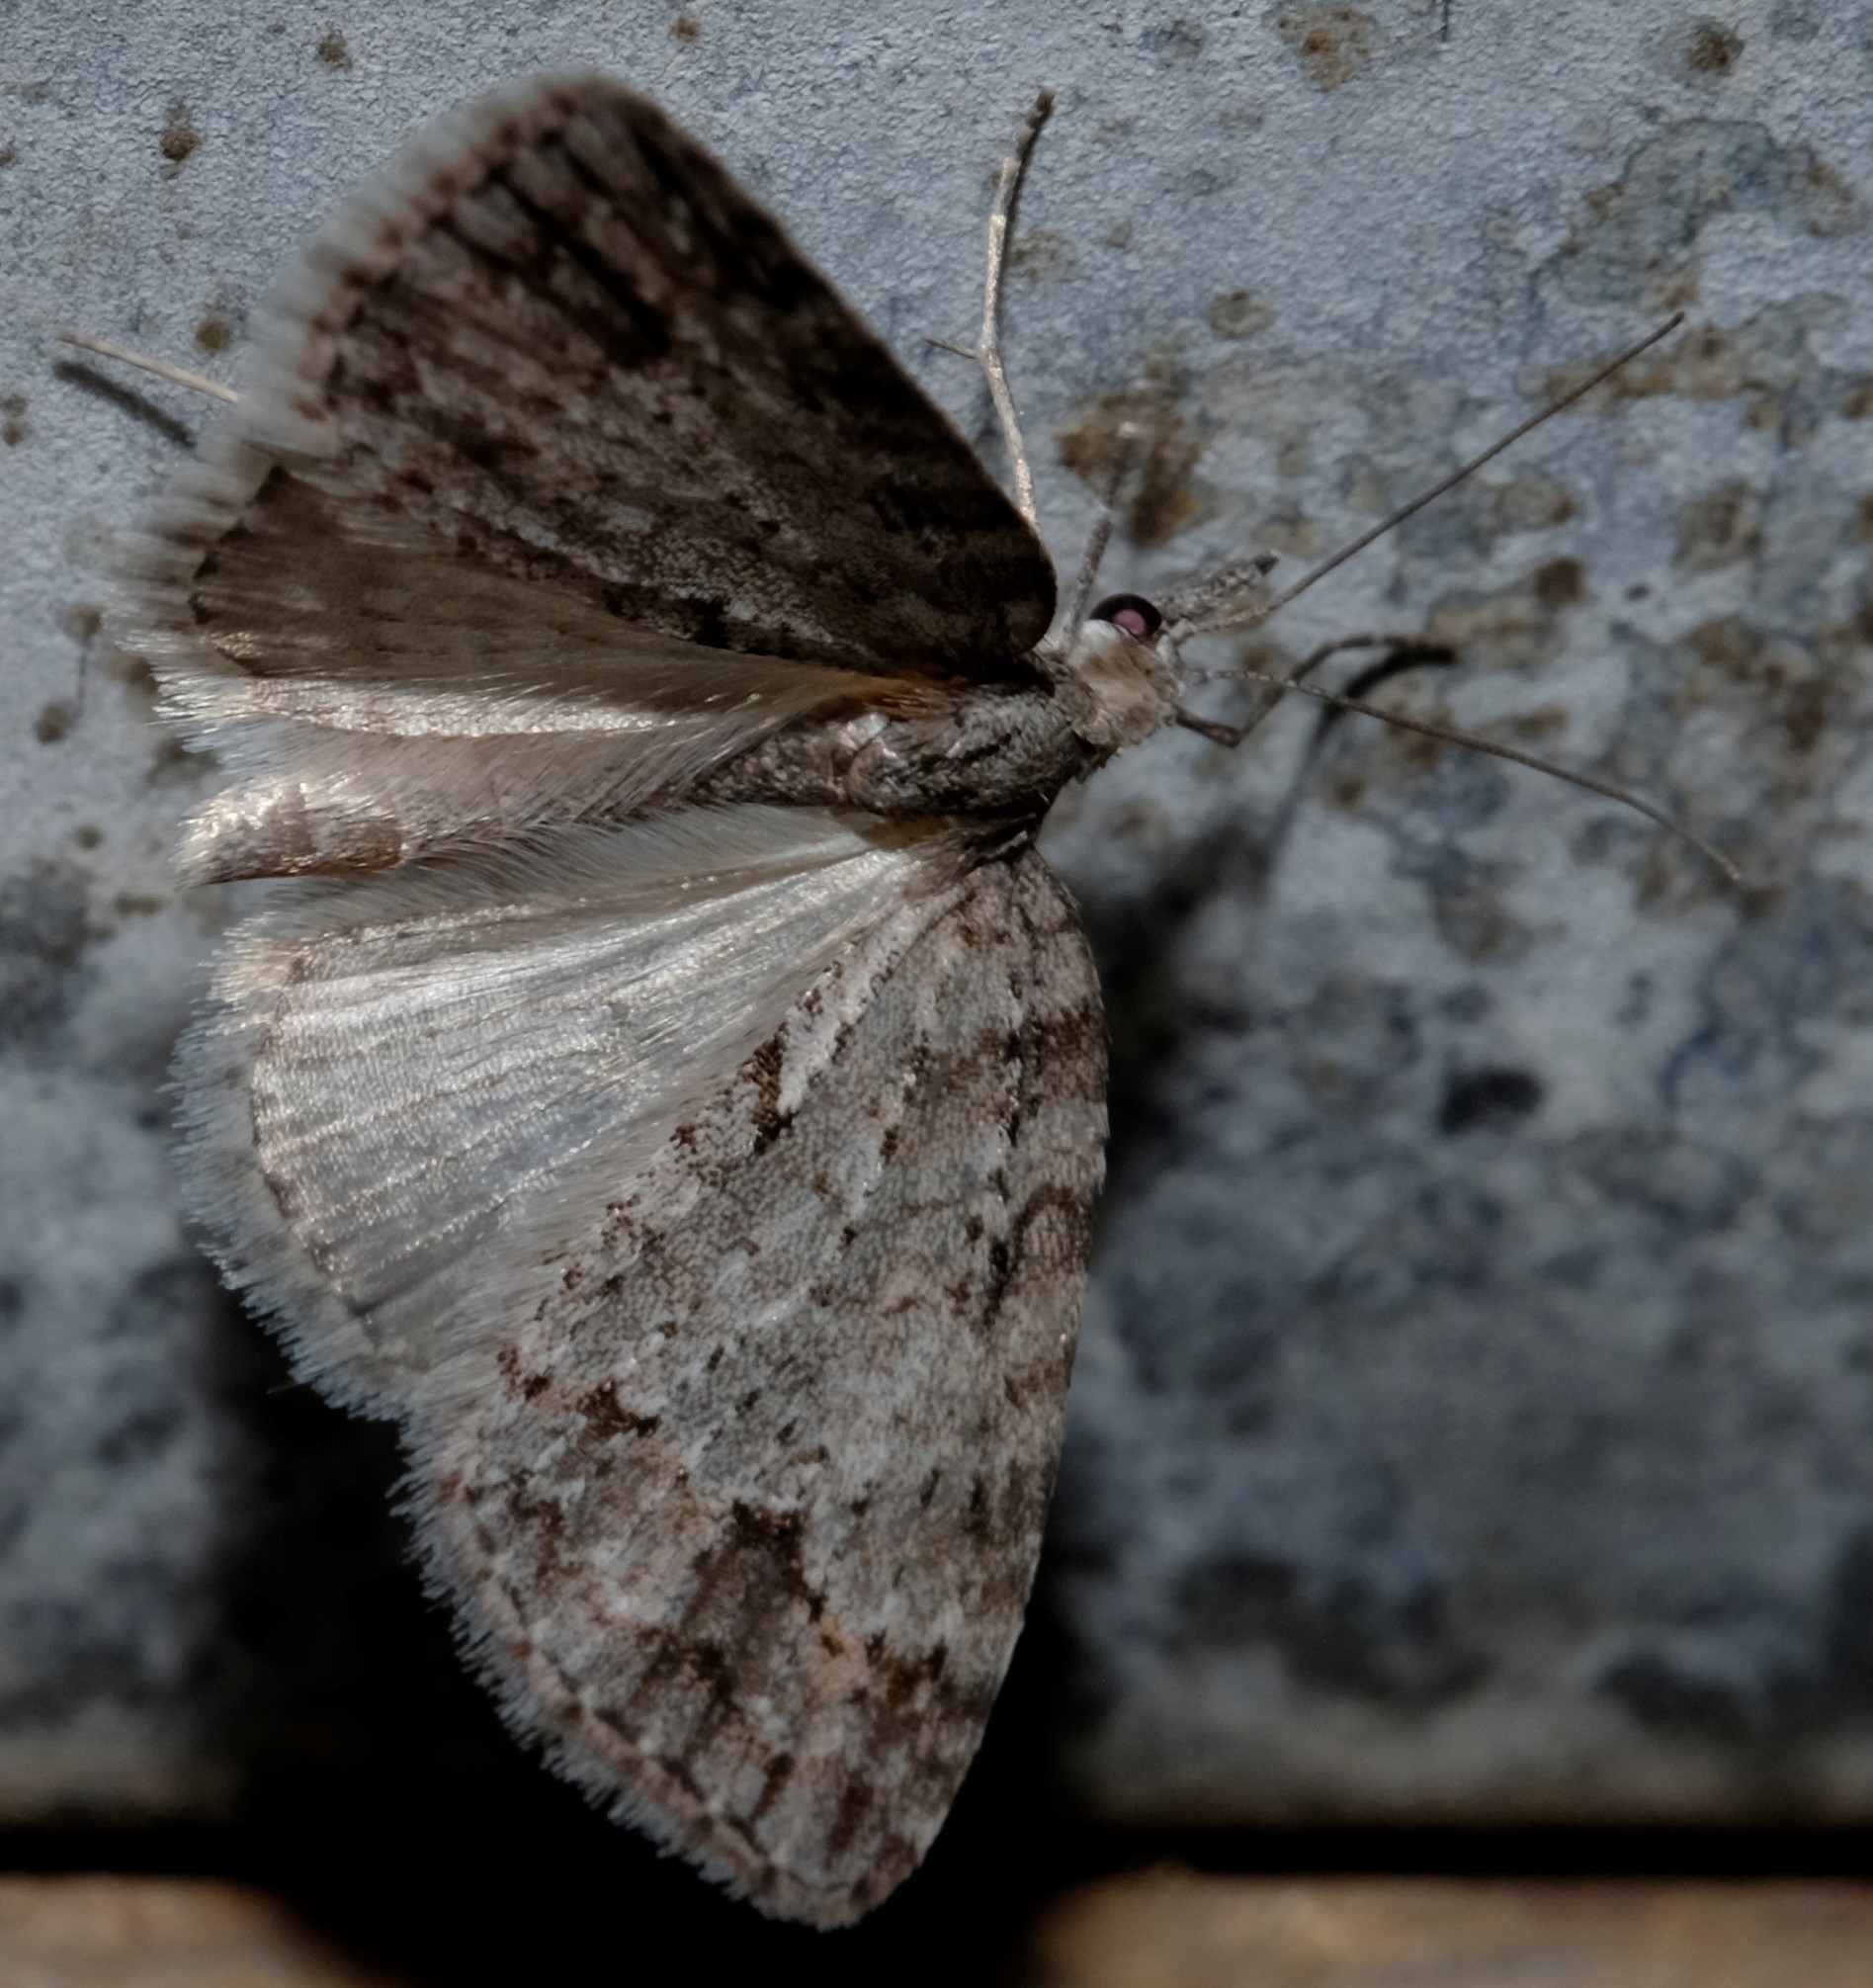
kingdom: Animalia
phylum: Arthropoda
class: Insecta
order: Lepidoptera
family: Geometridae
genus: Microdes
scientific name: Microdes villosata
